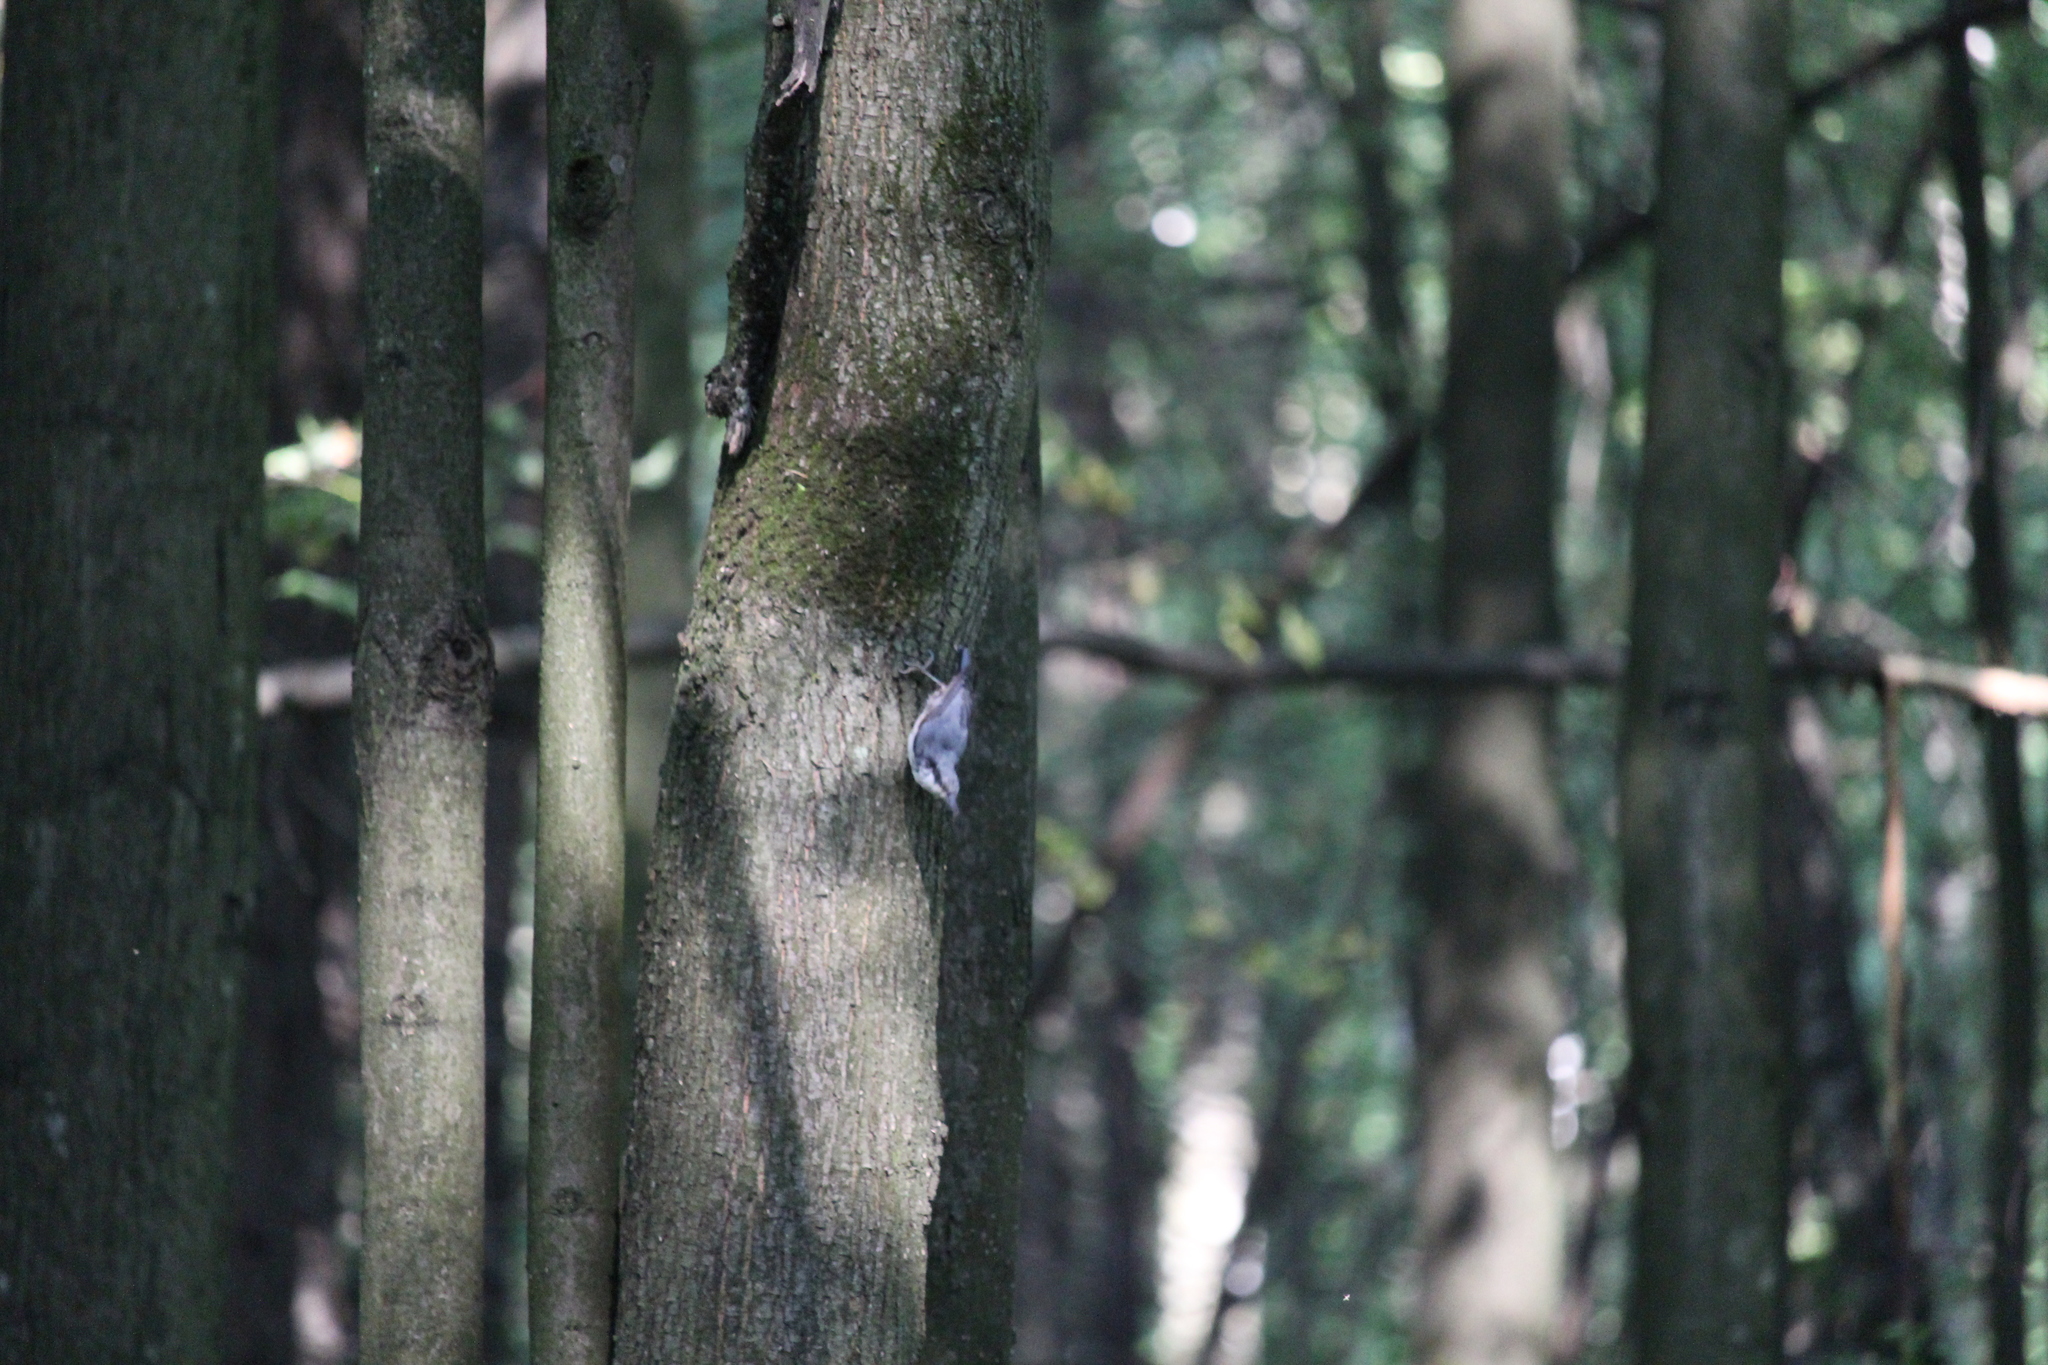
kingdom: Animalia
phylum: Chordata
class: Aves
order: Passeriformes
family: Sittidae
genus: Sitta
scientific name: Sitta europaea
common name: Eurasian nuthatch
